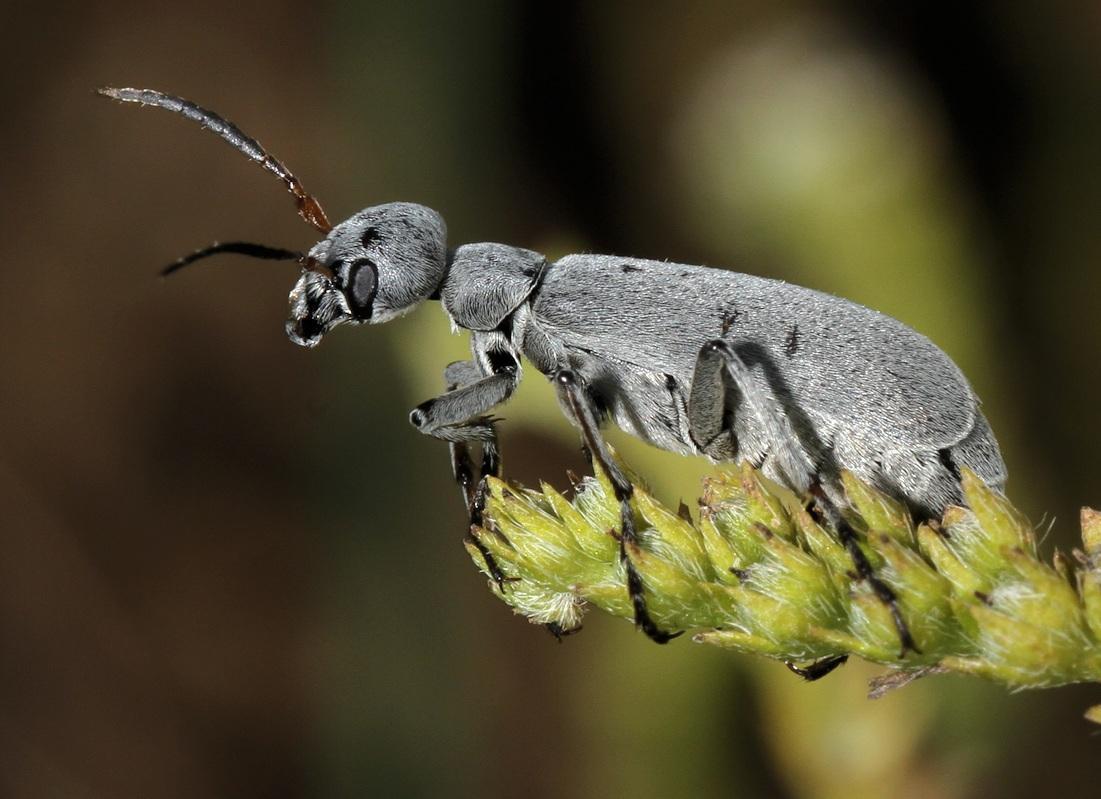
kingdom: Animalia
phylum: Arthropoda
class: Insecta
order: Coleoptera
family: Meloidae
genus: Epicauta
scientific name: Epicauta velata
